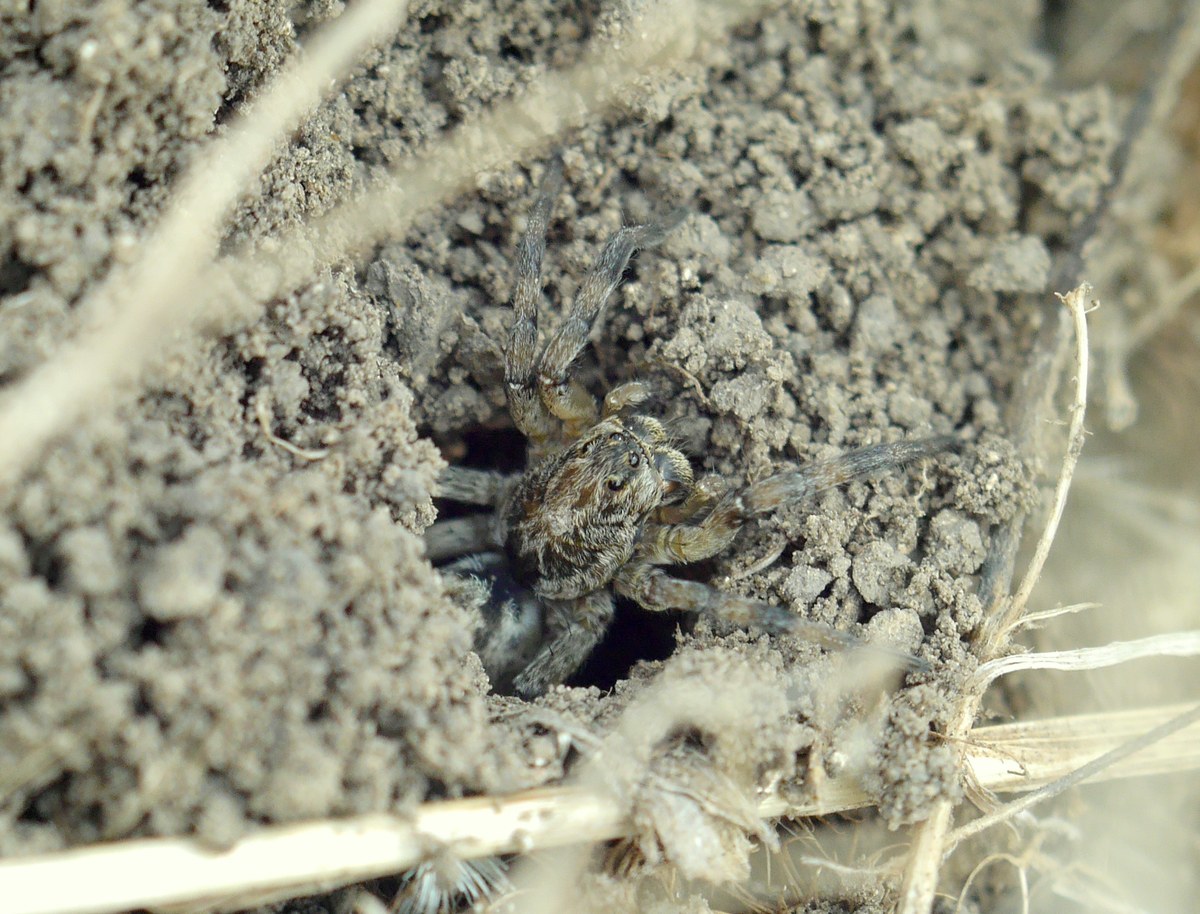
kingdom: Animalia
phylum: Arthropoda
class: Arachnida
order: Araneae
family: Lycosidae
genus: Geolycosa
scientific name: Geolycosa vultuosa
